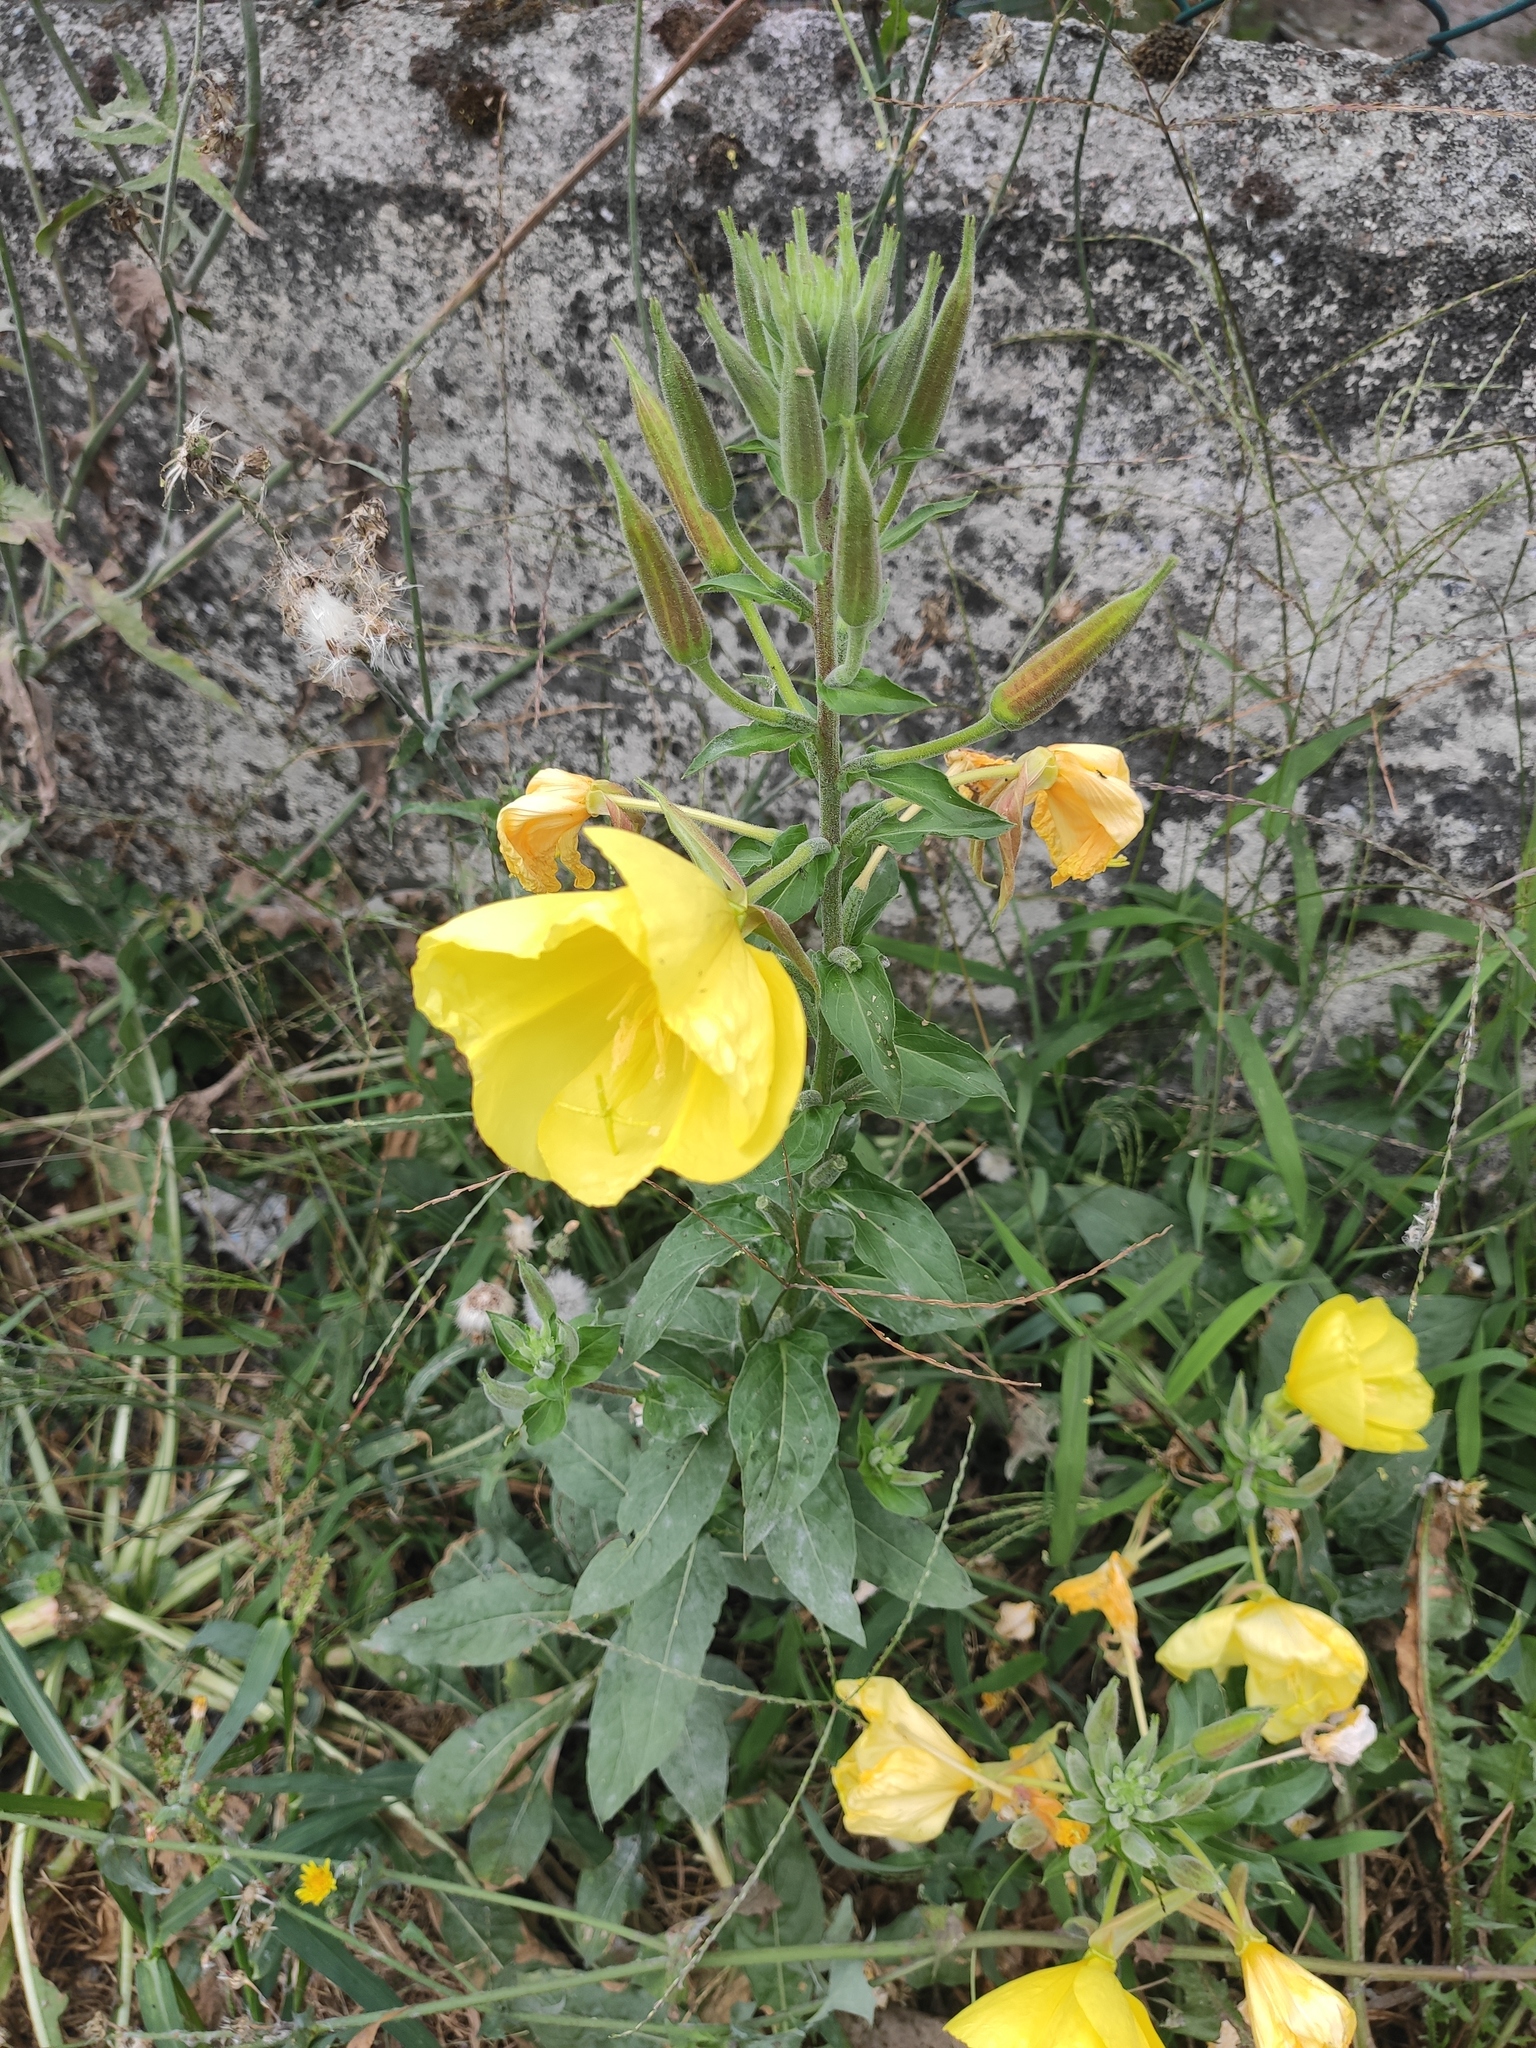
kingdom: Plantae
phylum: Tracheophyta
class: Magnoliopsida
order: Myrtales
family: Onagraceae
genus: Oenothera
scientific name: Oenothera glazioviana
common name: Large-flowered evening-primrose
